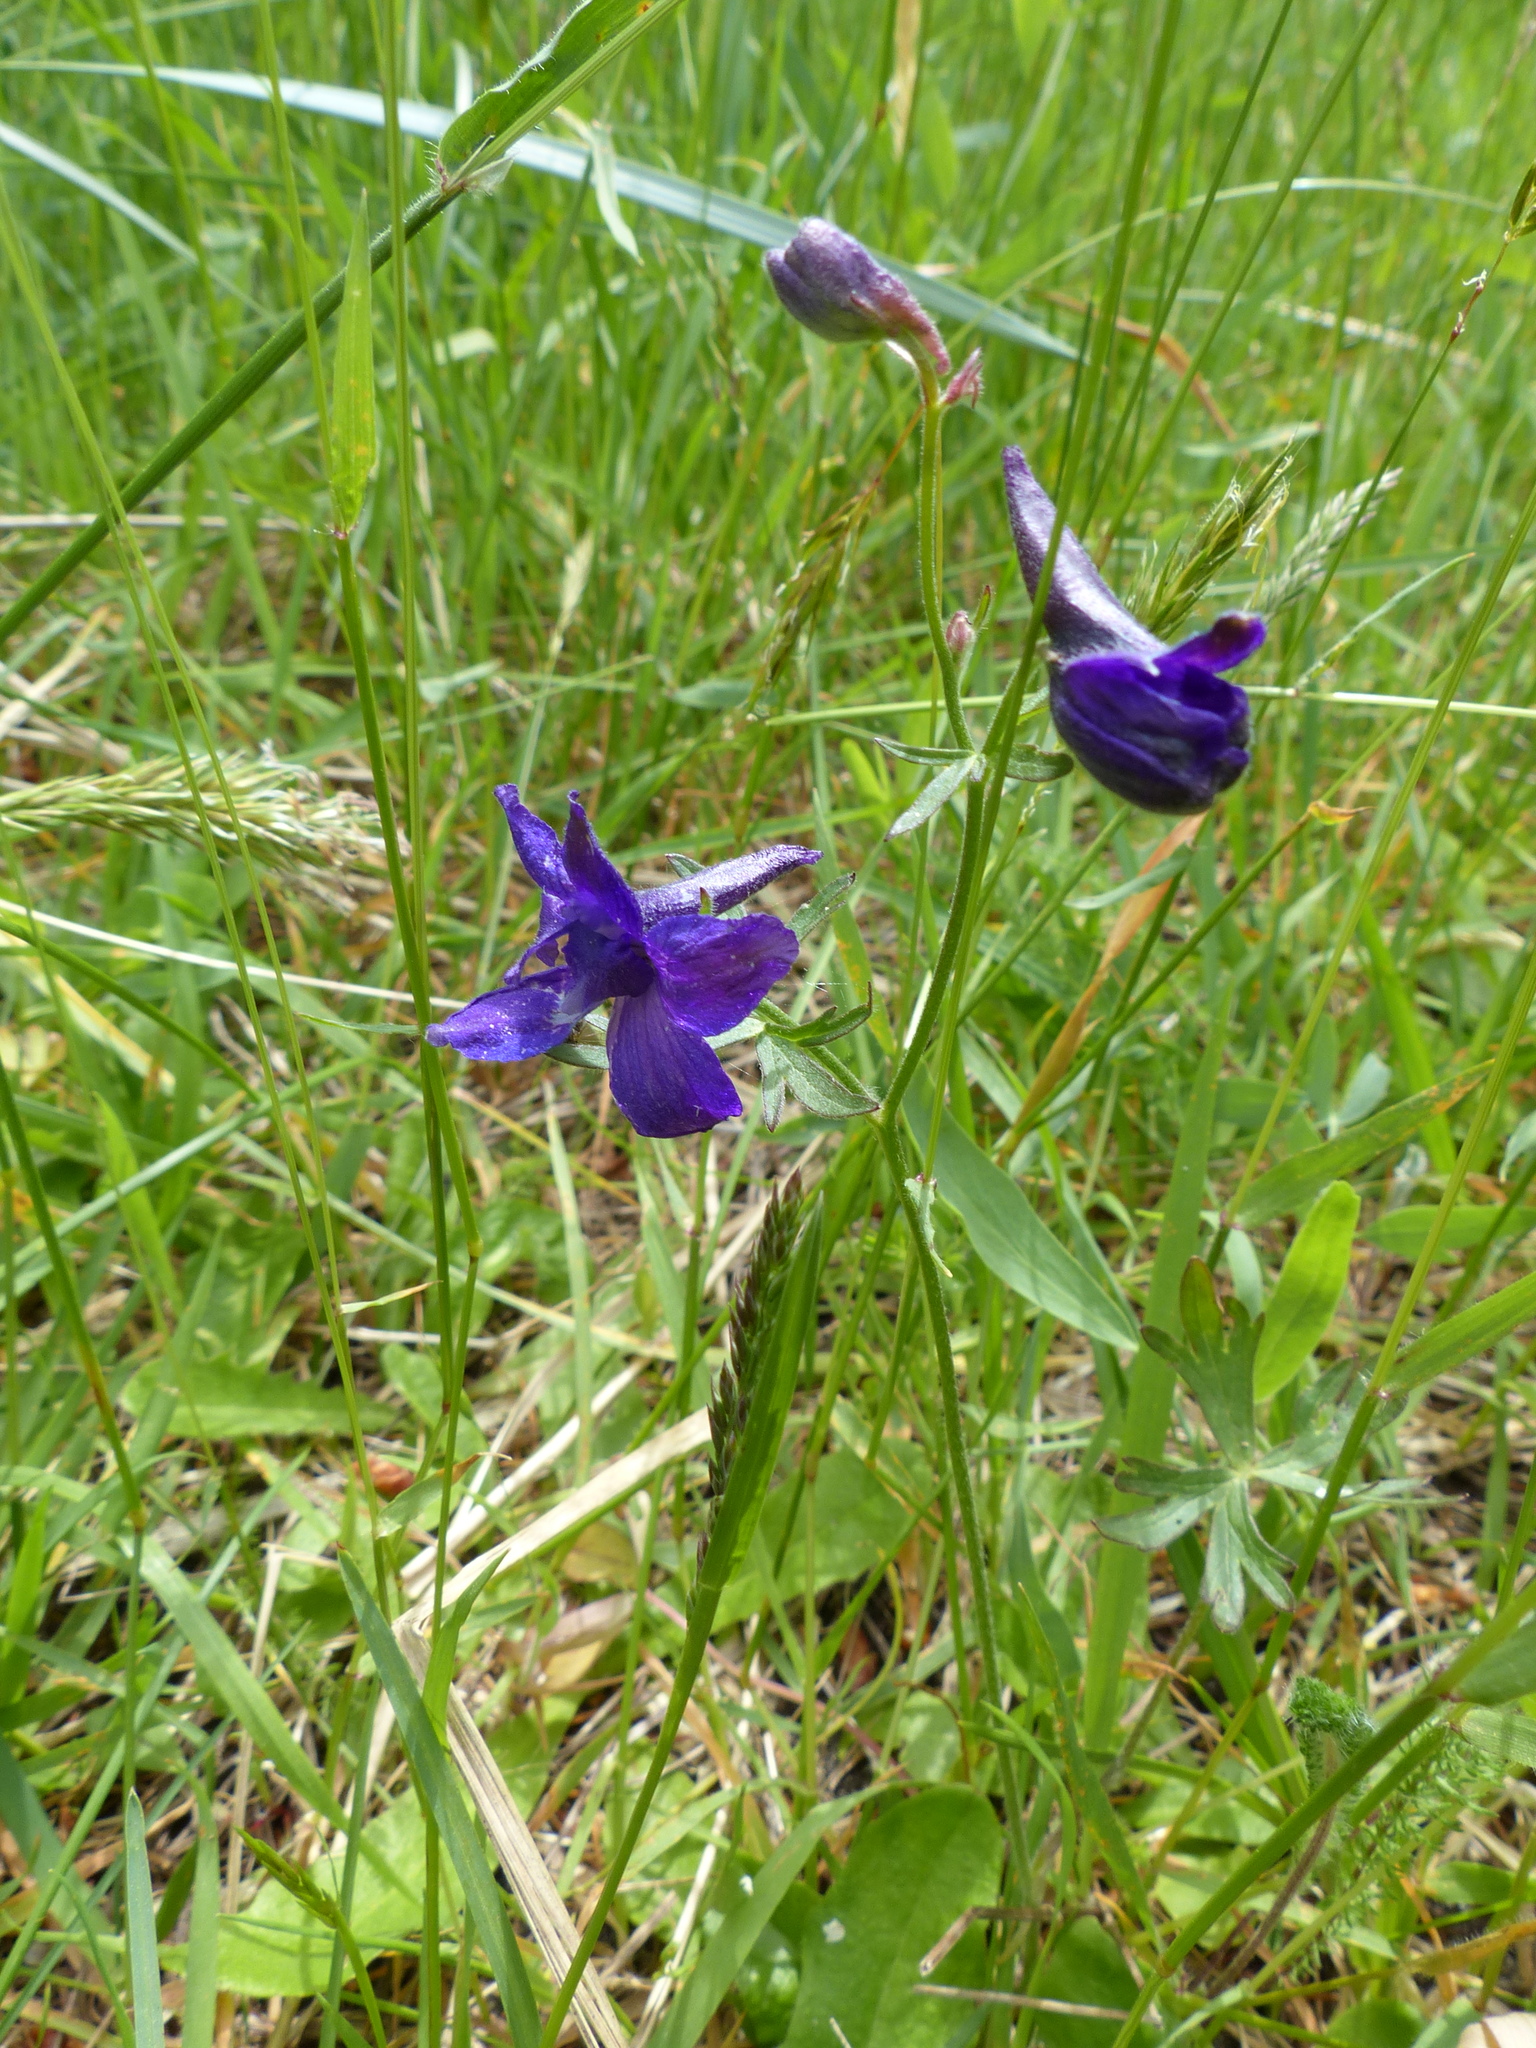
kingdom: Plantae
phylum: Tracheophyta
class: Magnoliopsida
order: Ranunculales
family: Ranunculaceae
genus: Delphinium
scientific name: Delphinium menziesii
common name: Menzies's larkspur
